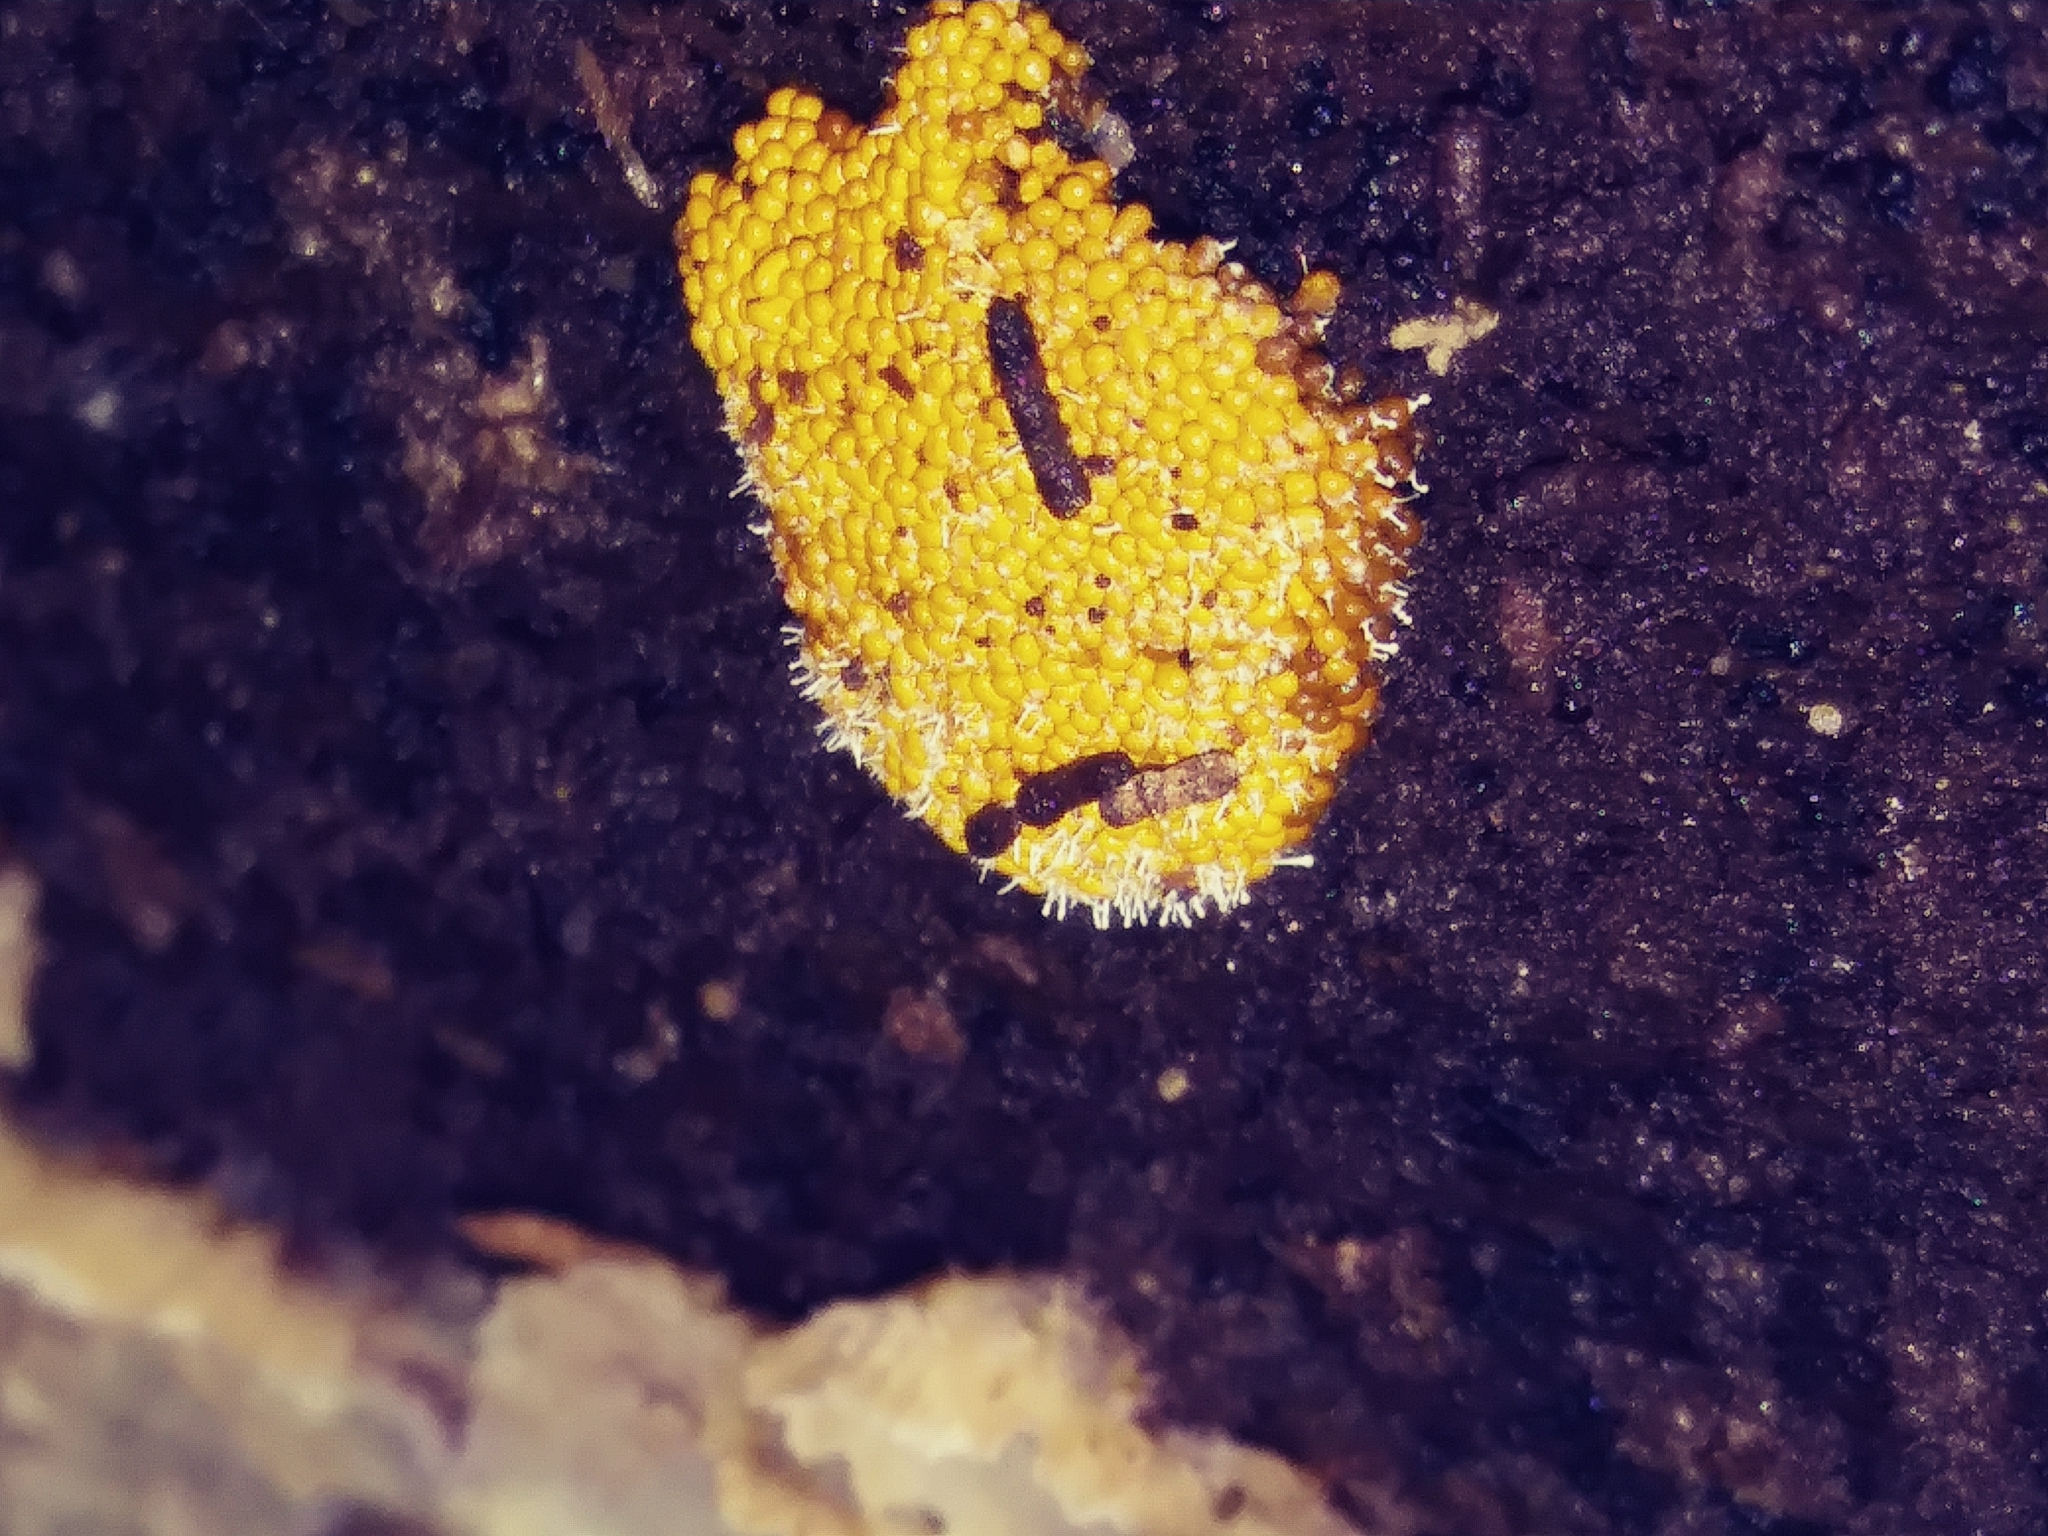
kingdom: Fungi
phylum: Ascomycota
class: Sordariomycetes
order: Hypocreales
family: Ophiocordycipitaceae
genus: Polycephalomyces
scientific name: Polycephalomyces tomentosus
